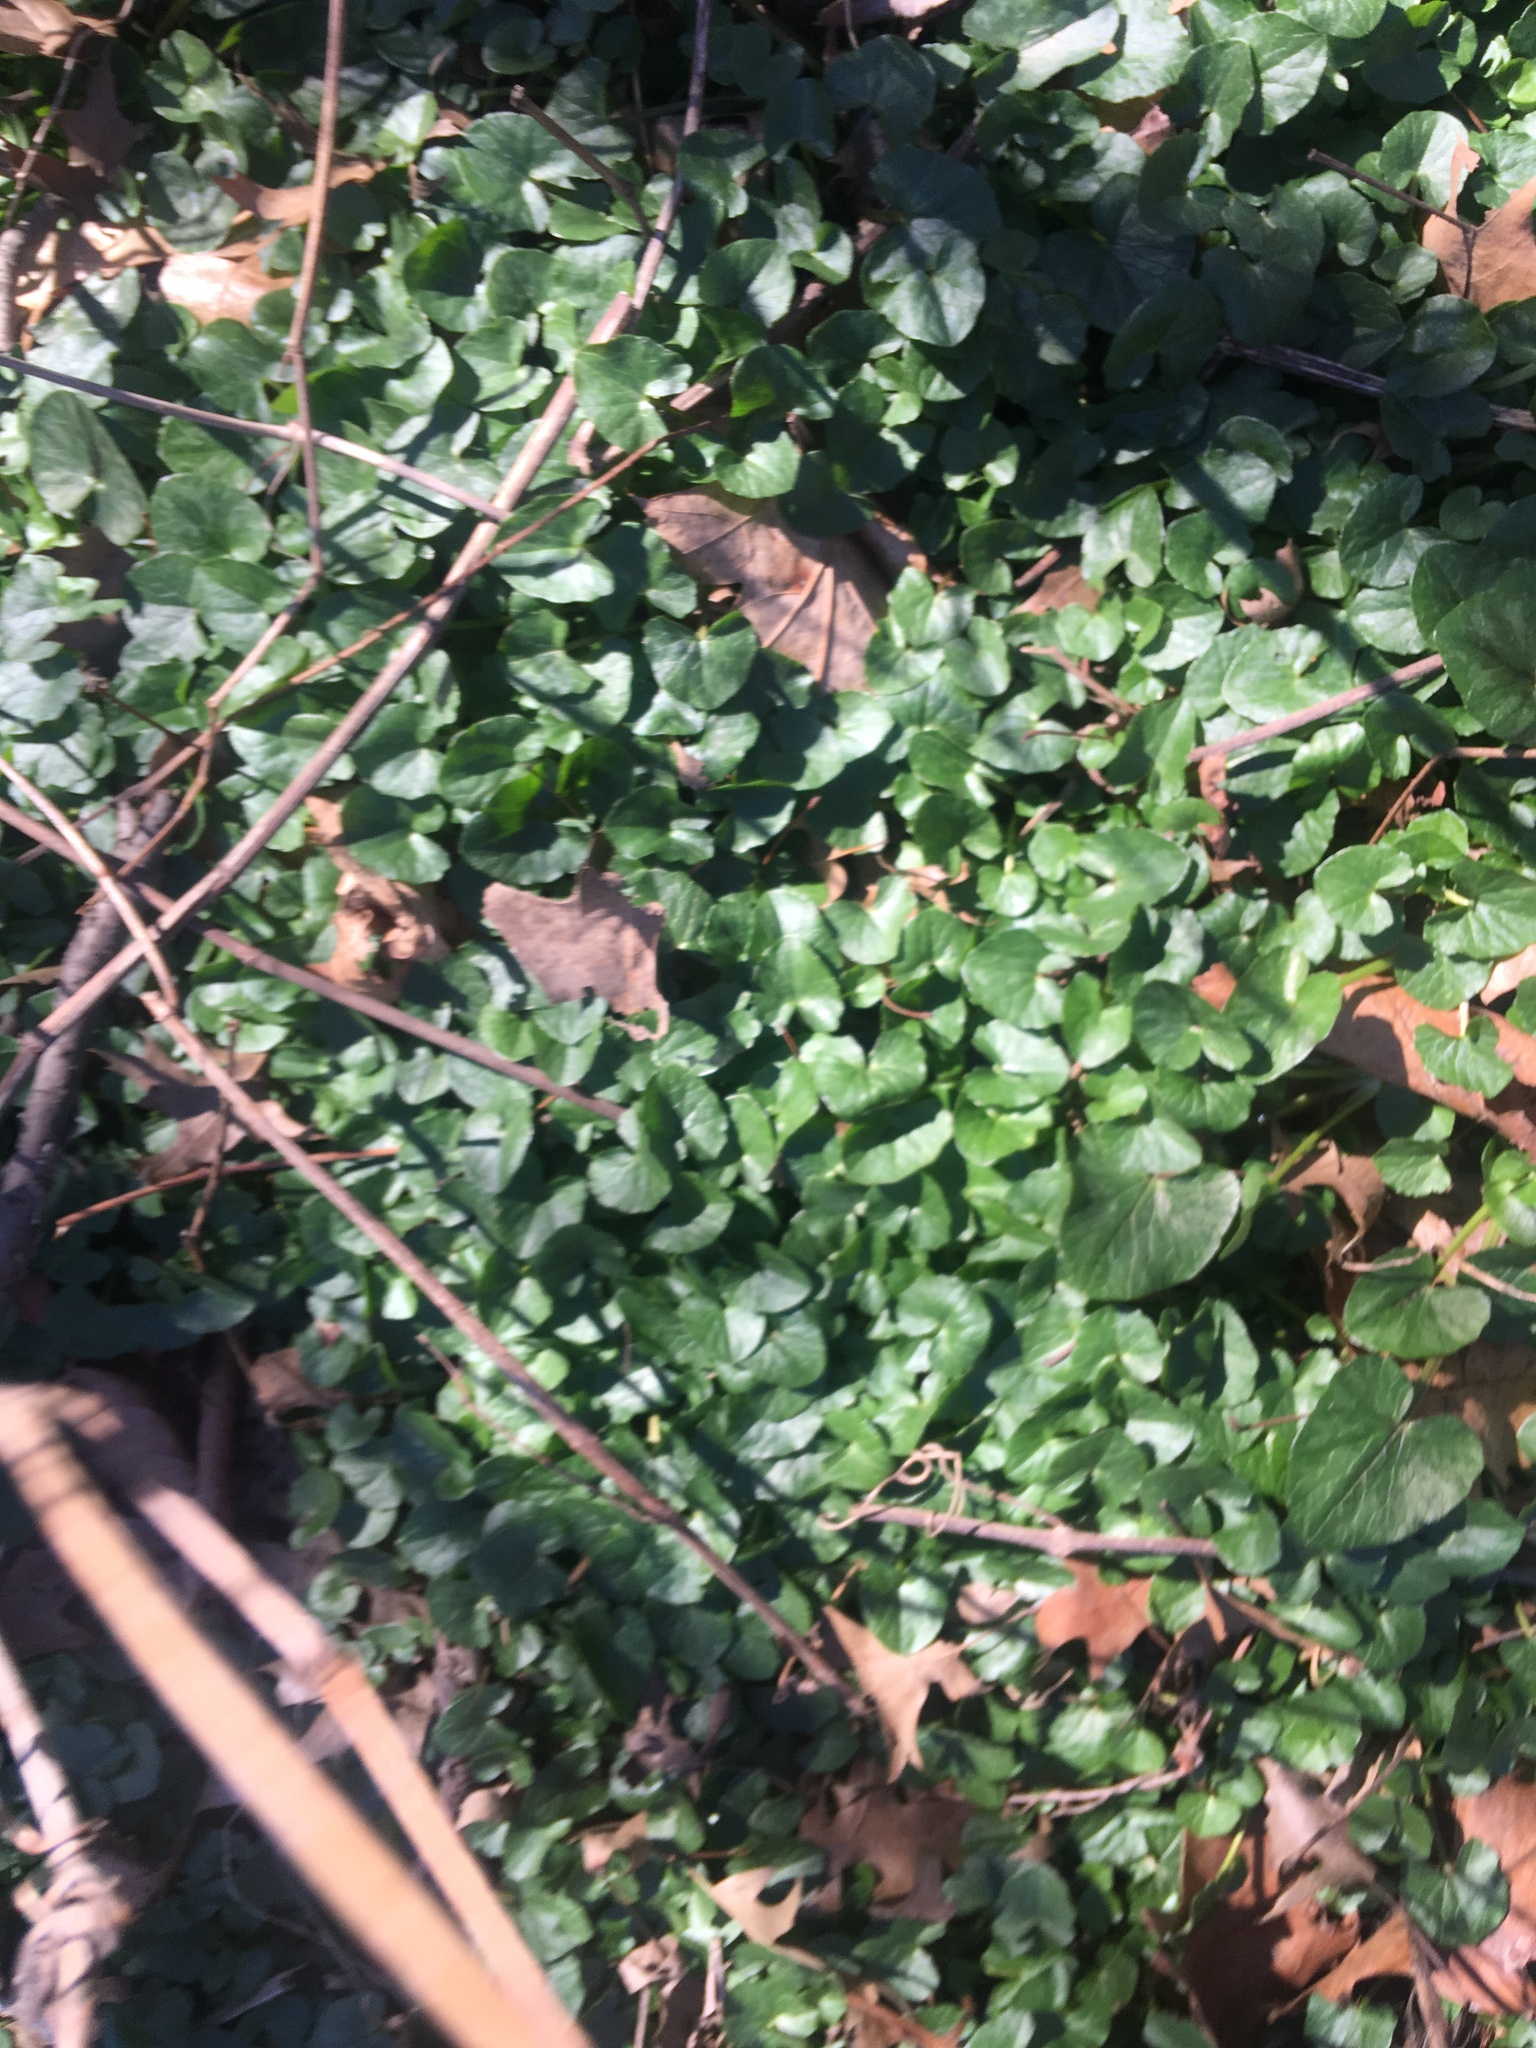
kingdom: Plantae
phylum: Tracheophyta
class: Magnoliopsida
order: Ranunculales
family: Ranunculaceae
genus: Ficaria
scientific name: Ficaria verna
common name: Lesser celandine
